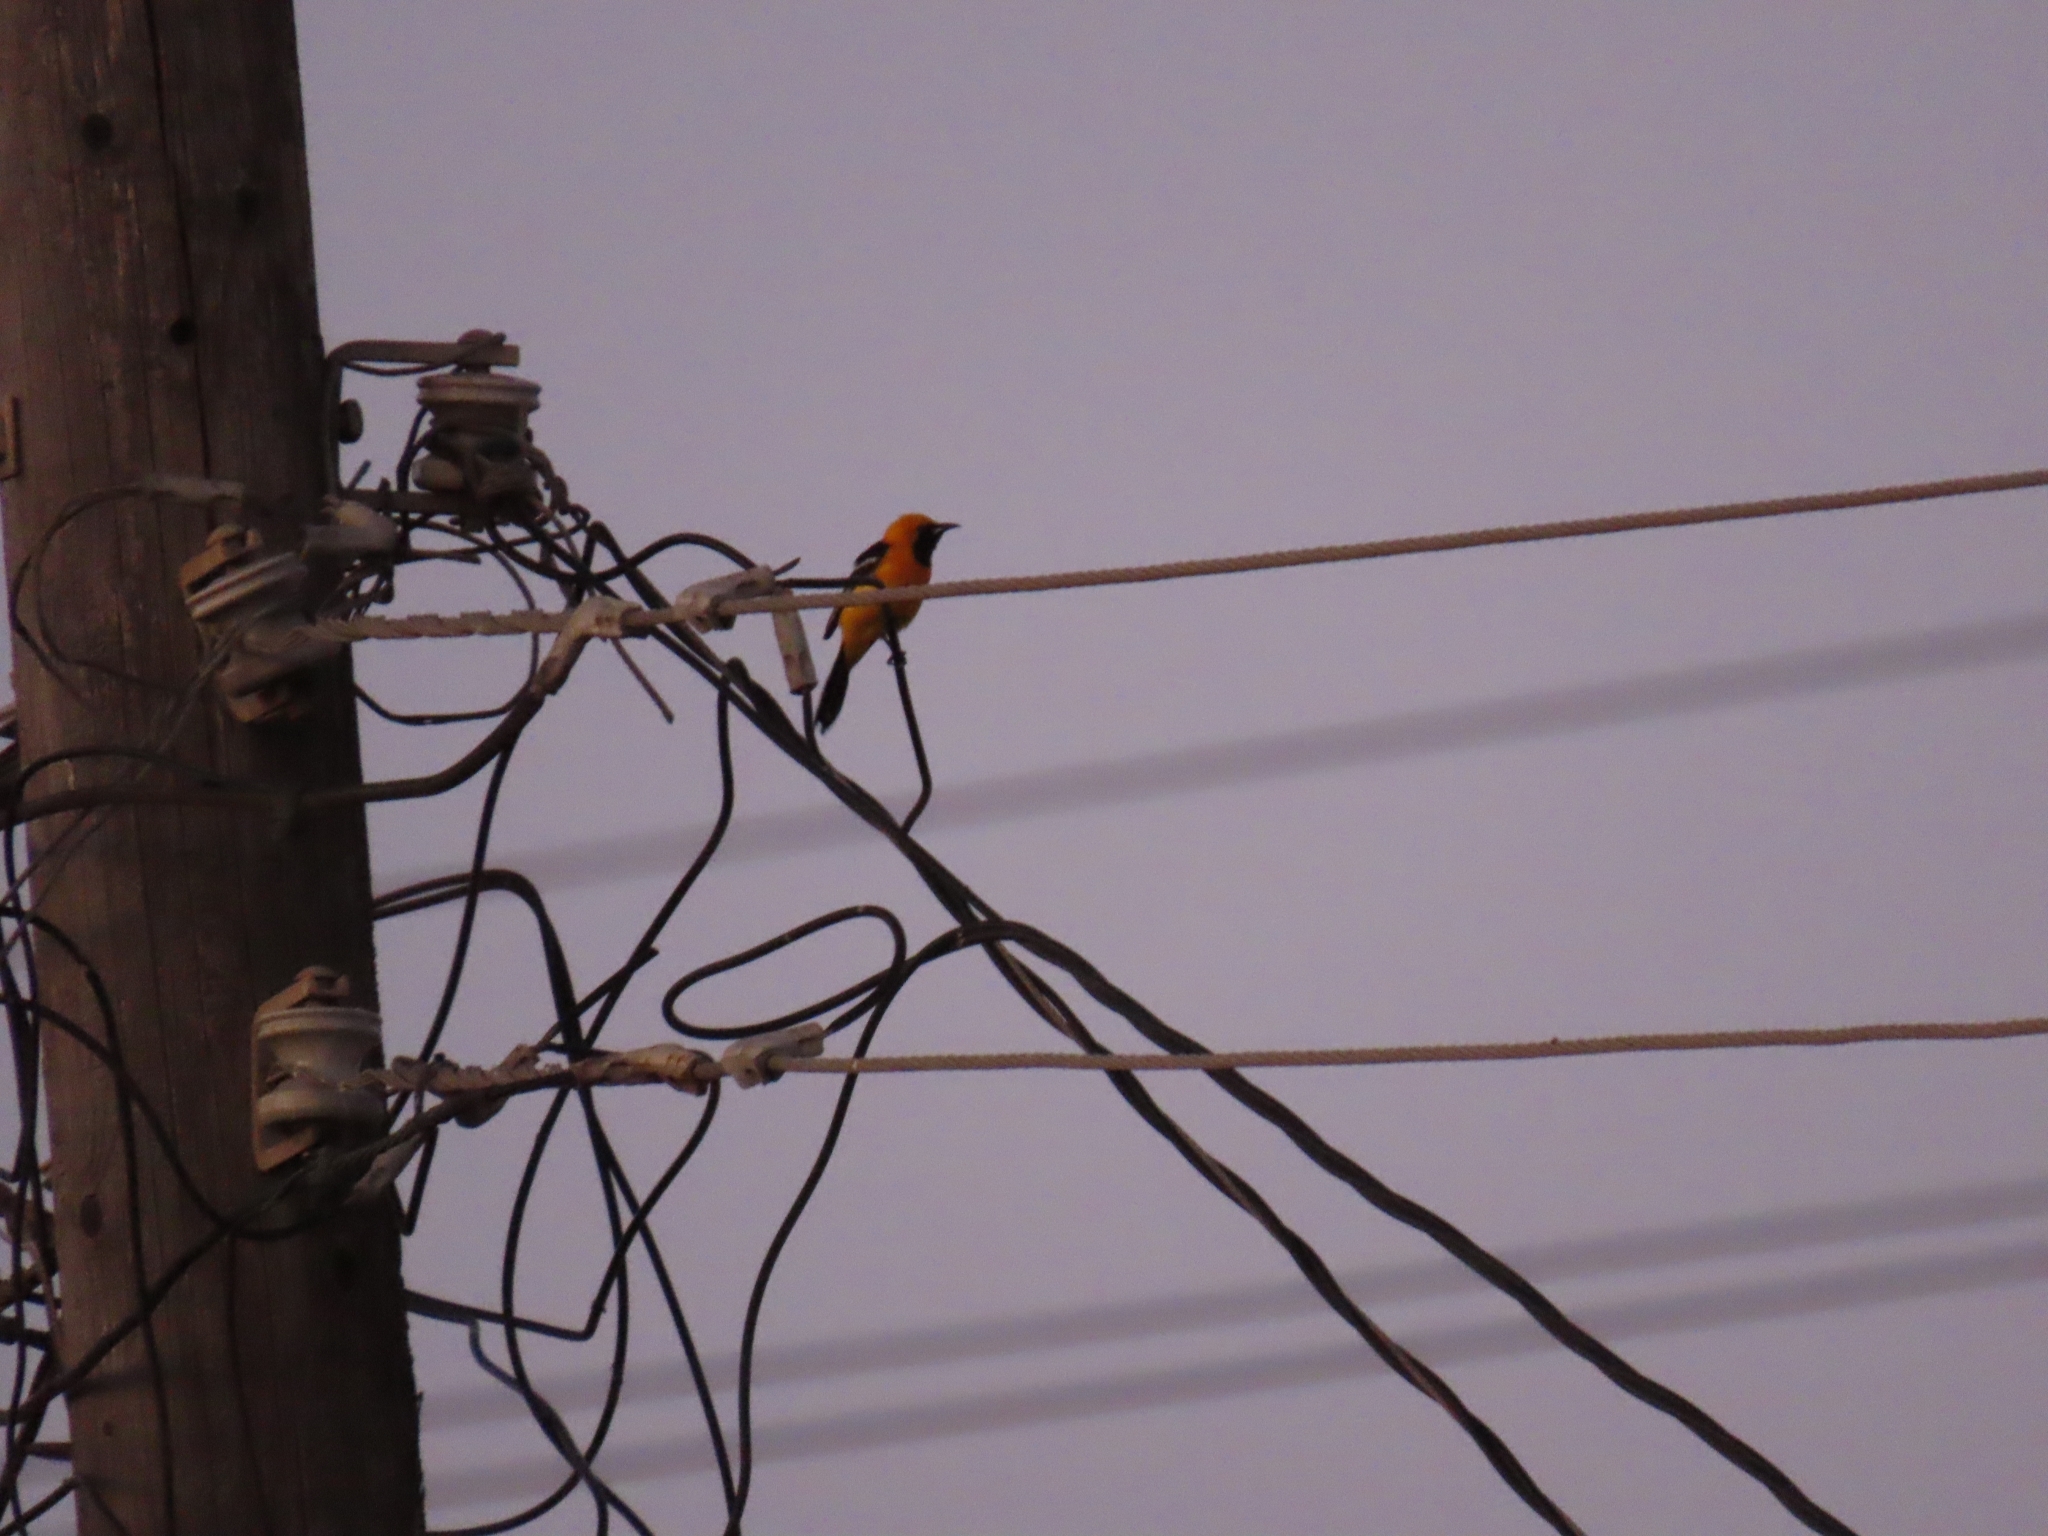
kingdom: Animalia
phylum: Chordata
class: Aves
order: Passeriformes
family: Icteridae
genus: Icterus
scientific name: Icterus cucullatus
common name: Hooded oriole
